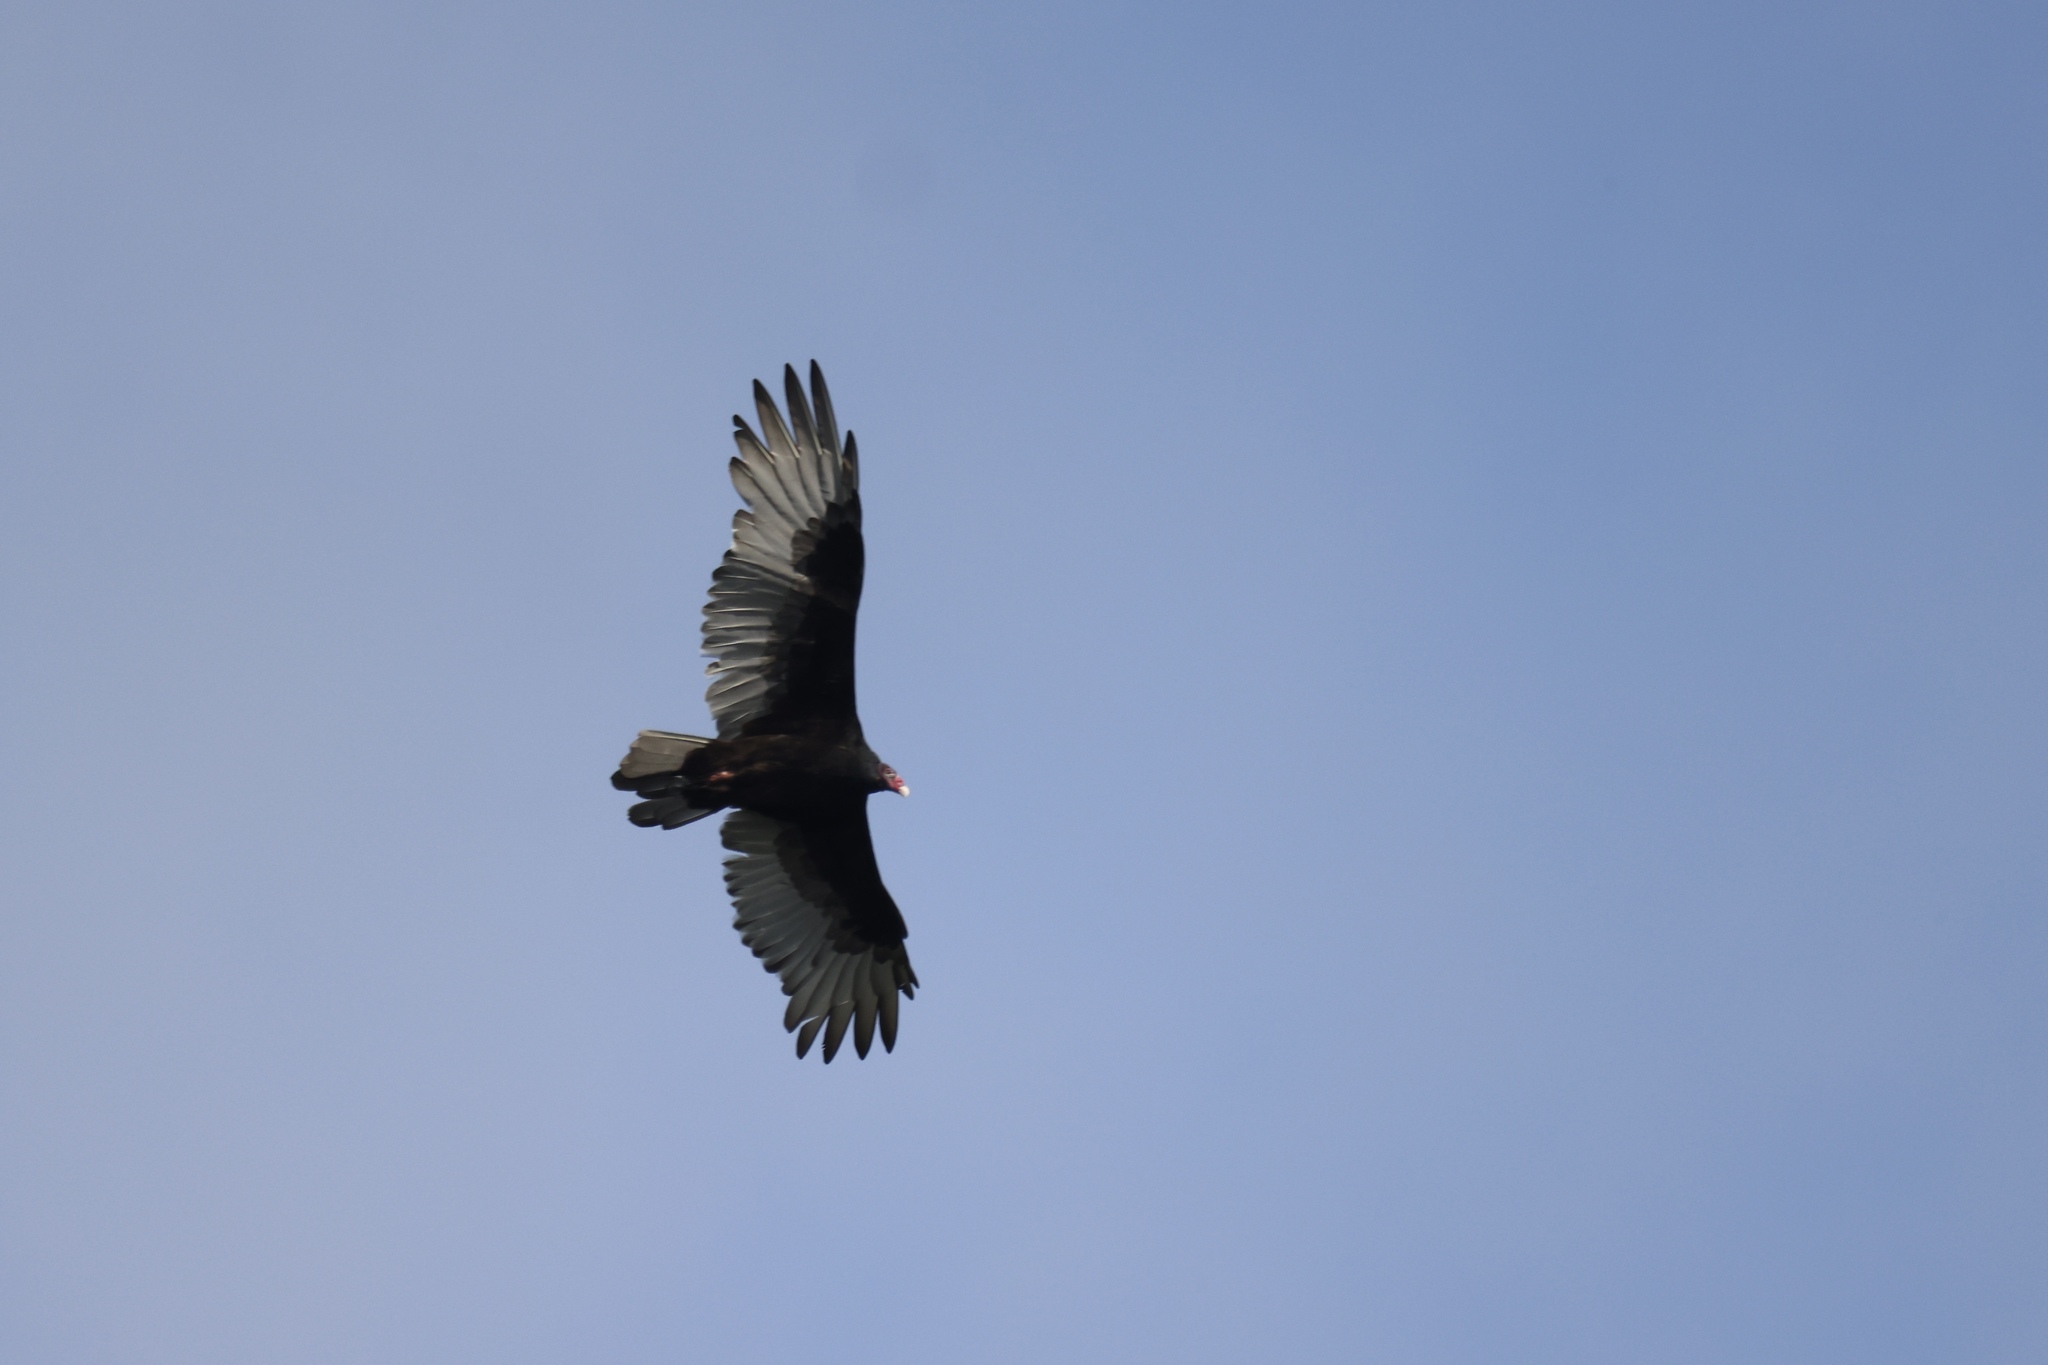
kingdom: Animalia
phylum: Chordata
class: Aves
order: Accipitriformes
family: Cathartidae
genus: Cathartes
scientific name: Cathartes aura
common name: Turkey vulture
